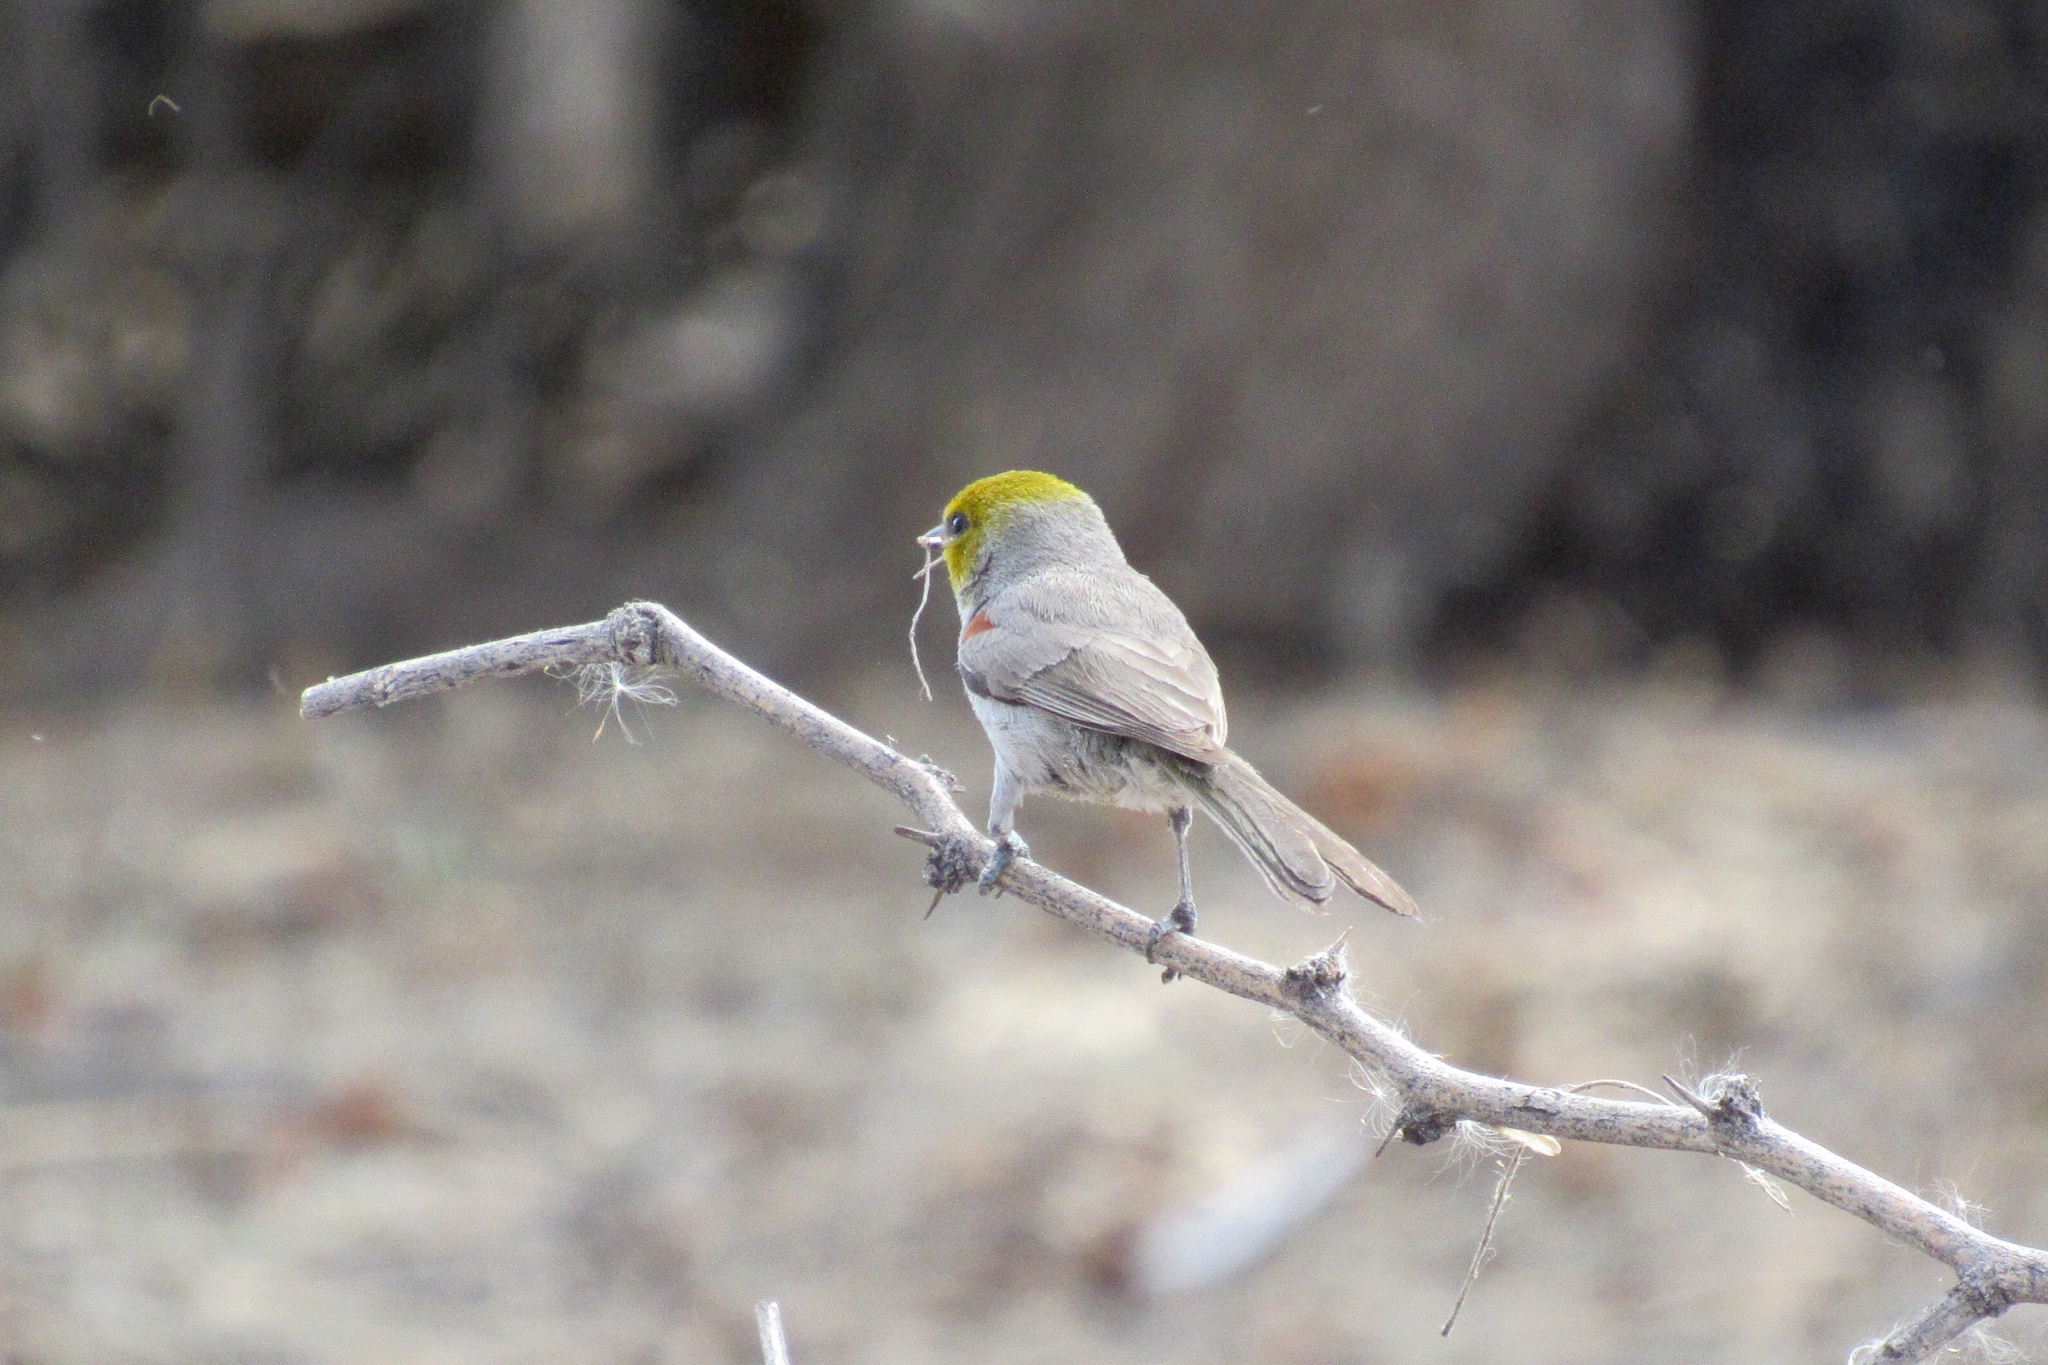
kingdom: Animalia
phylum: Chordata
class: Aves
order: Passeriformes
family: Remizidae
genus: Auriparus
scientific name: Auriparus flaviceps
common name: Verdin
